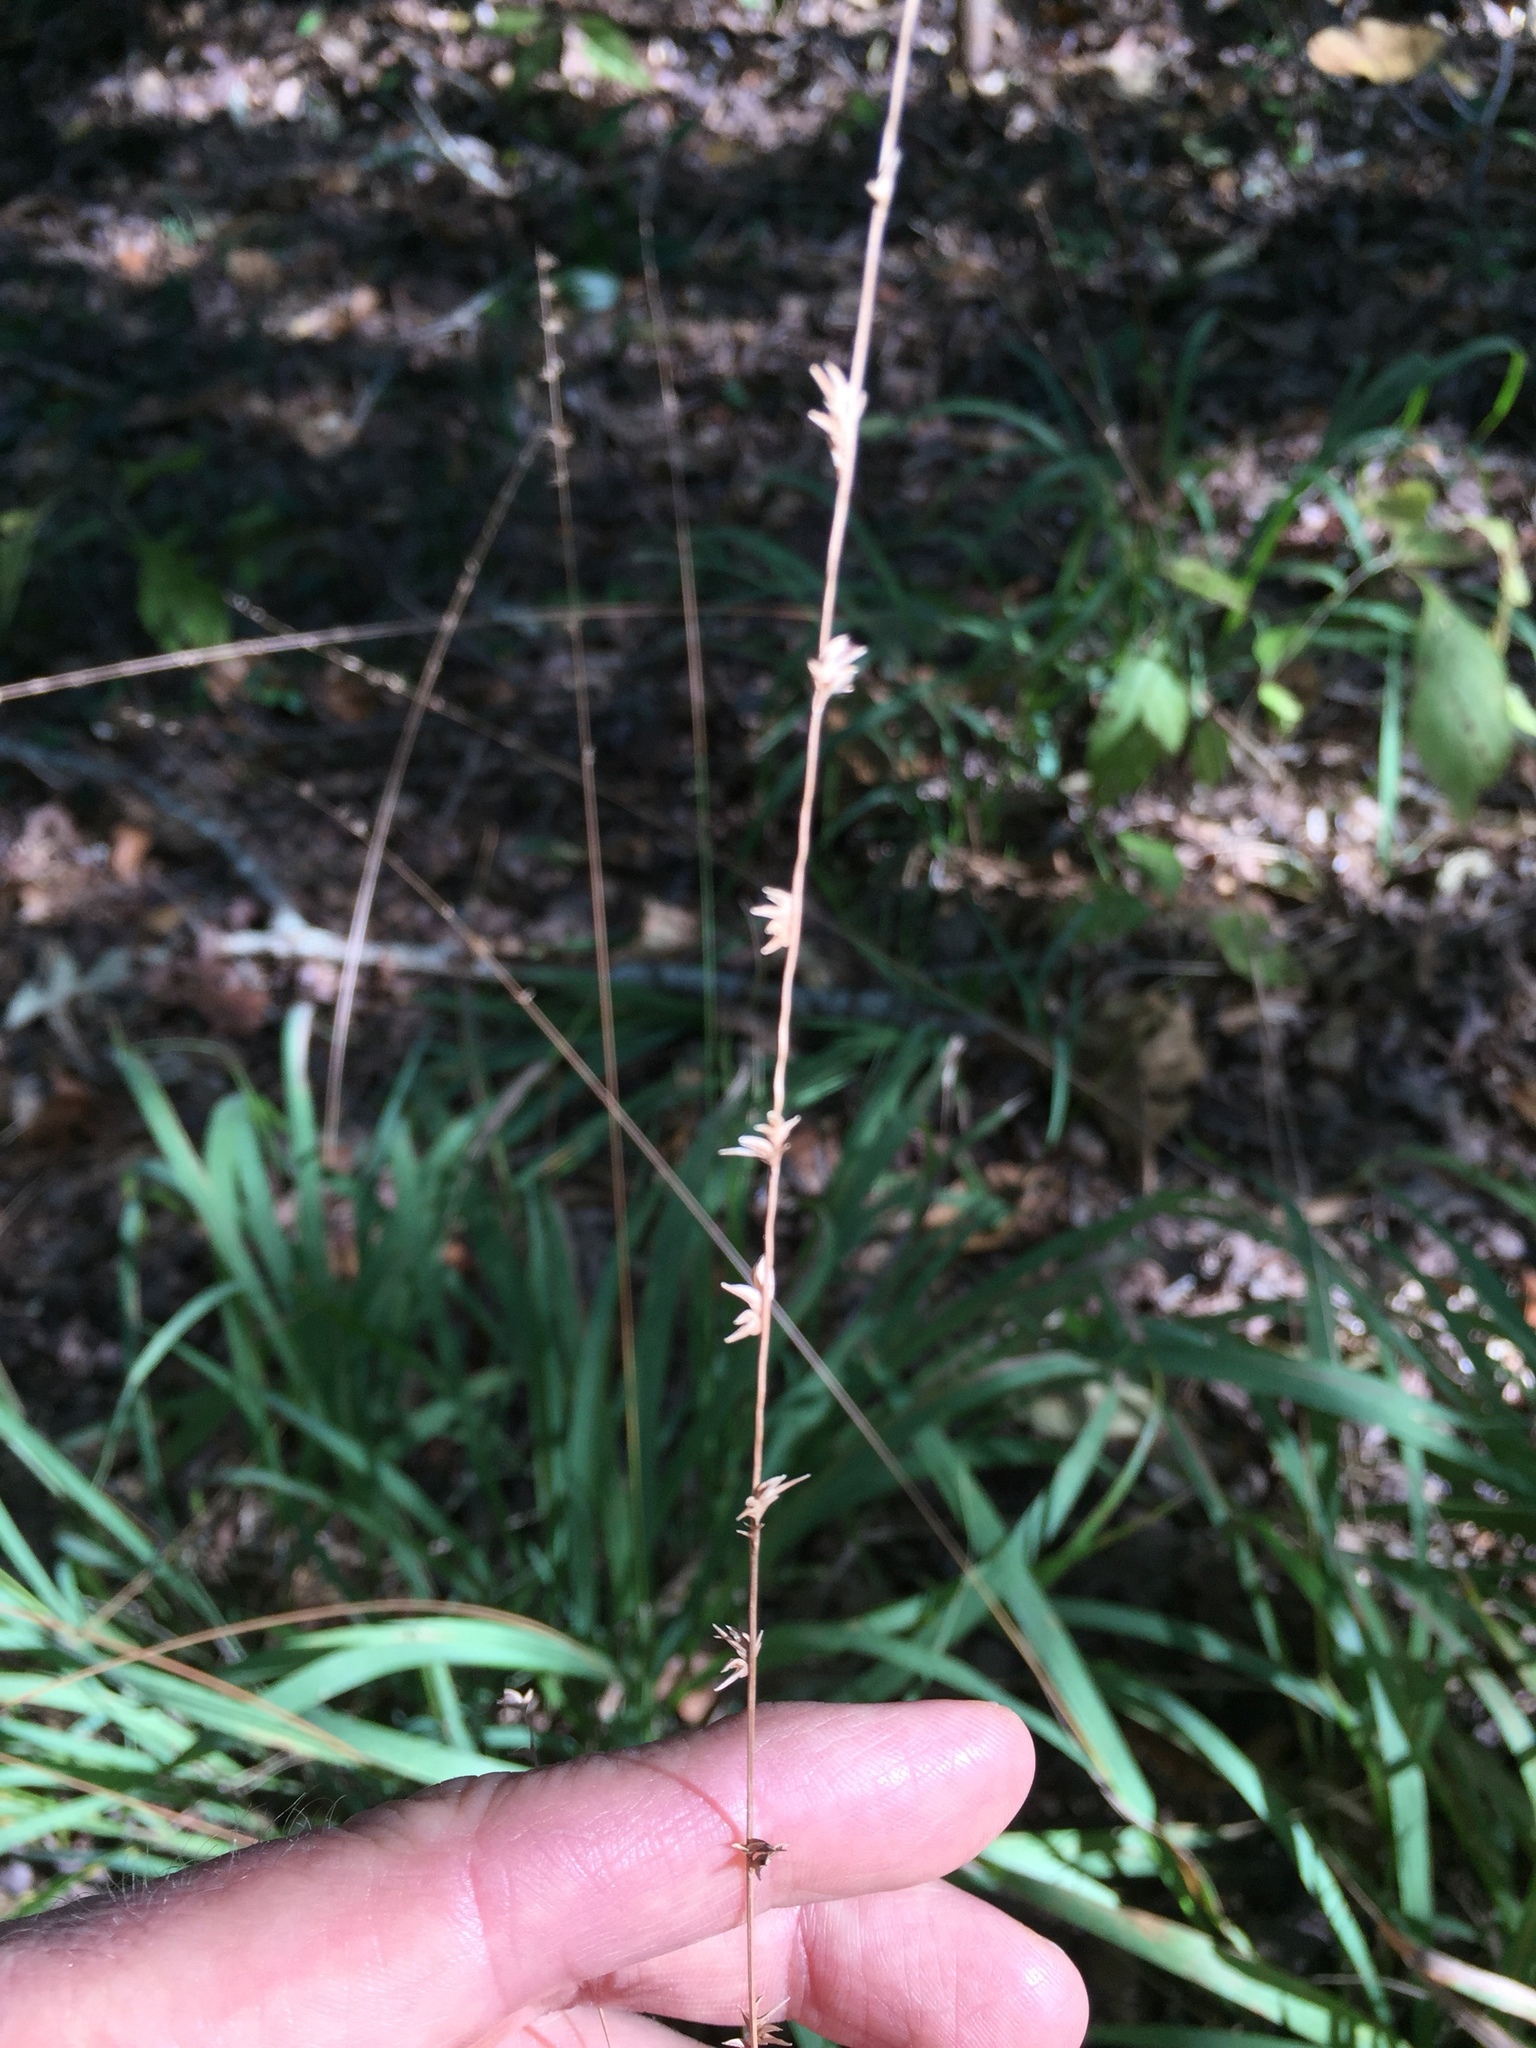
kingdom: Plantae
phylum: Tracheophyta
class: Liliopsida
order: Poales
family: Poaceae
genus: Chasmanthium
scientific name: Chasmanthium laxum
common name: Slender chasmanthium
